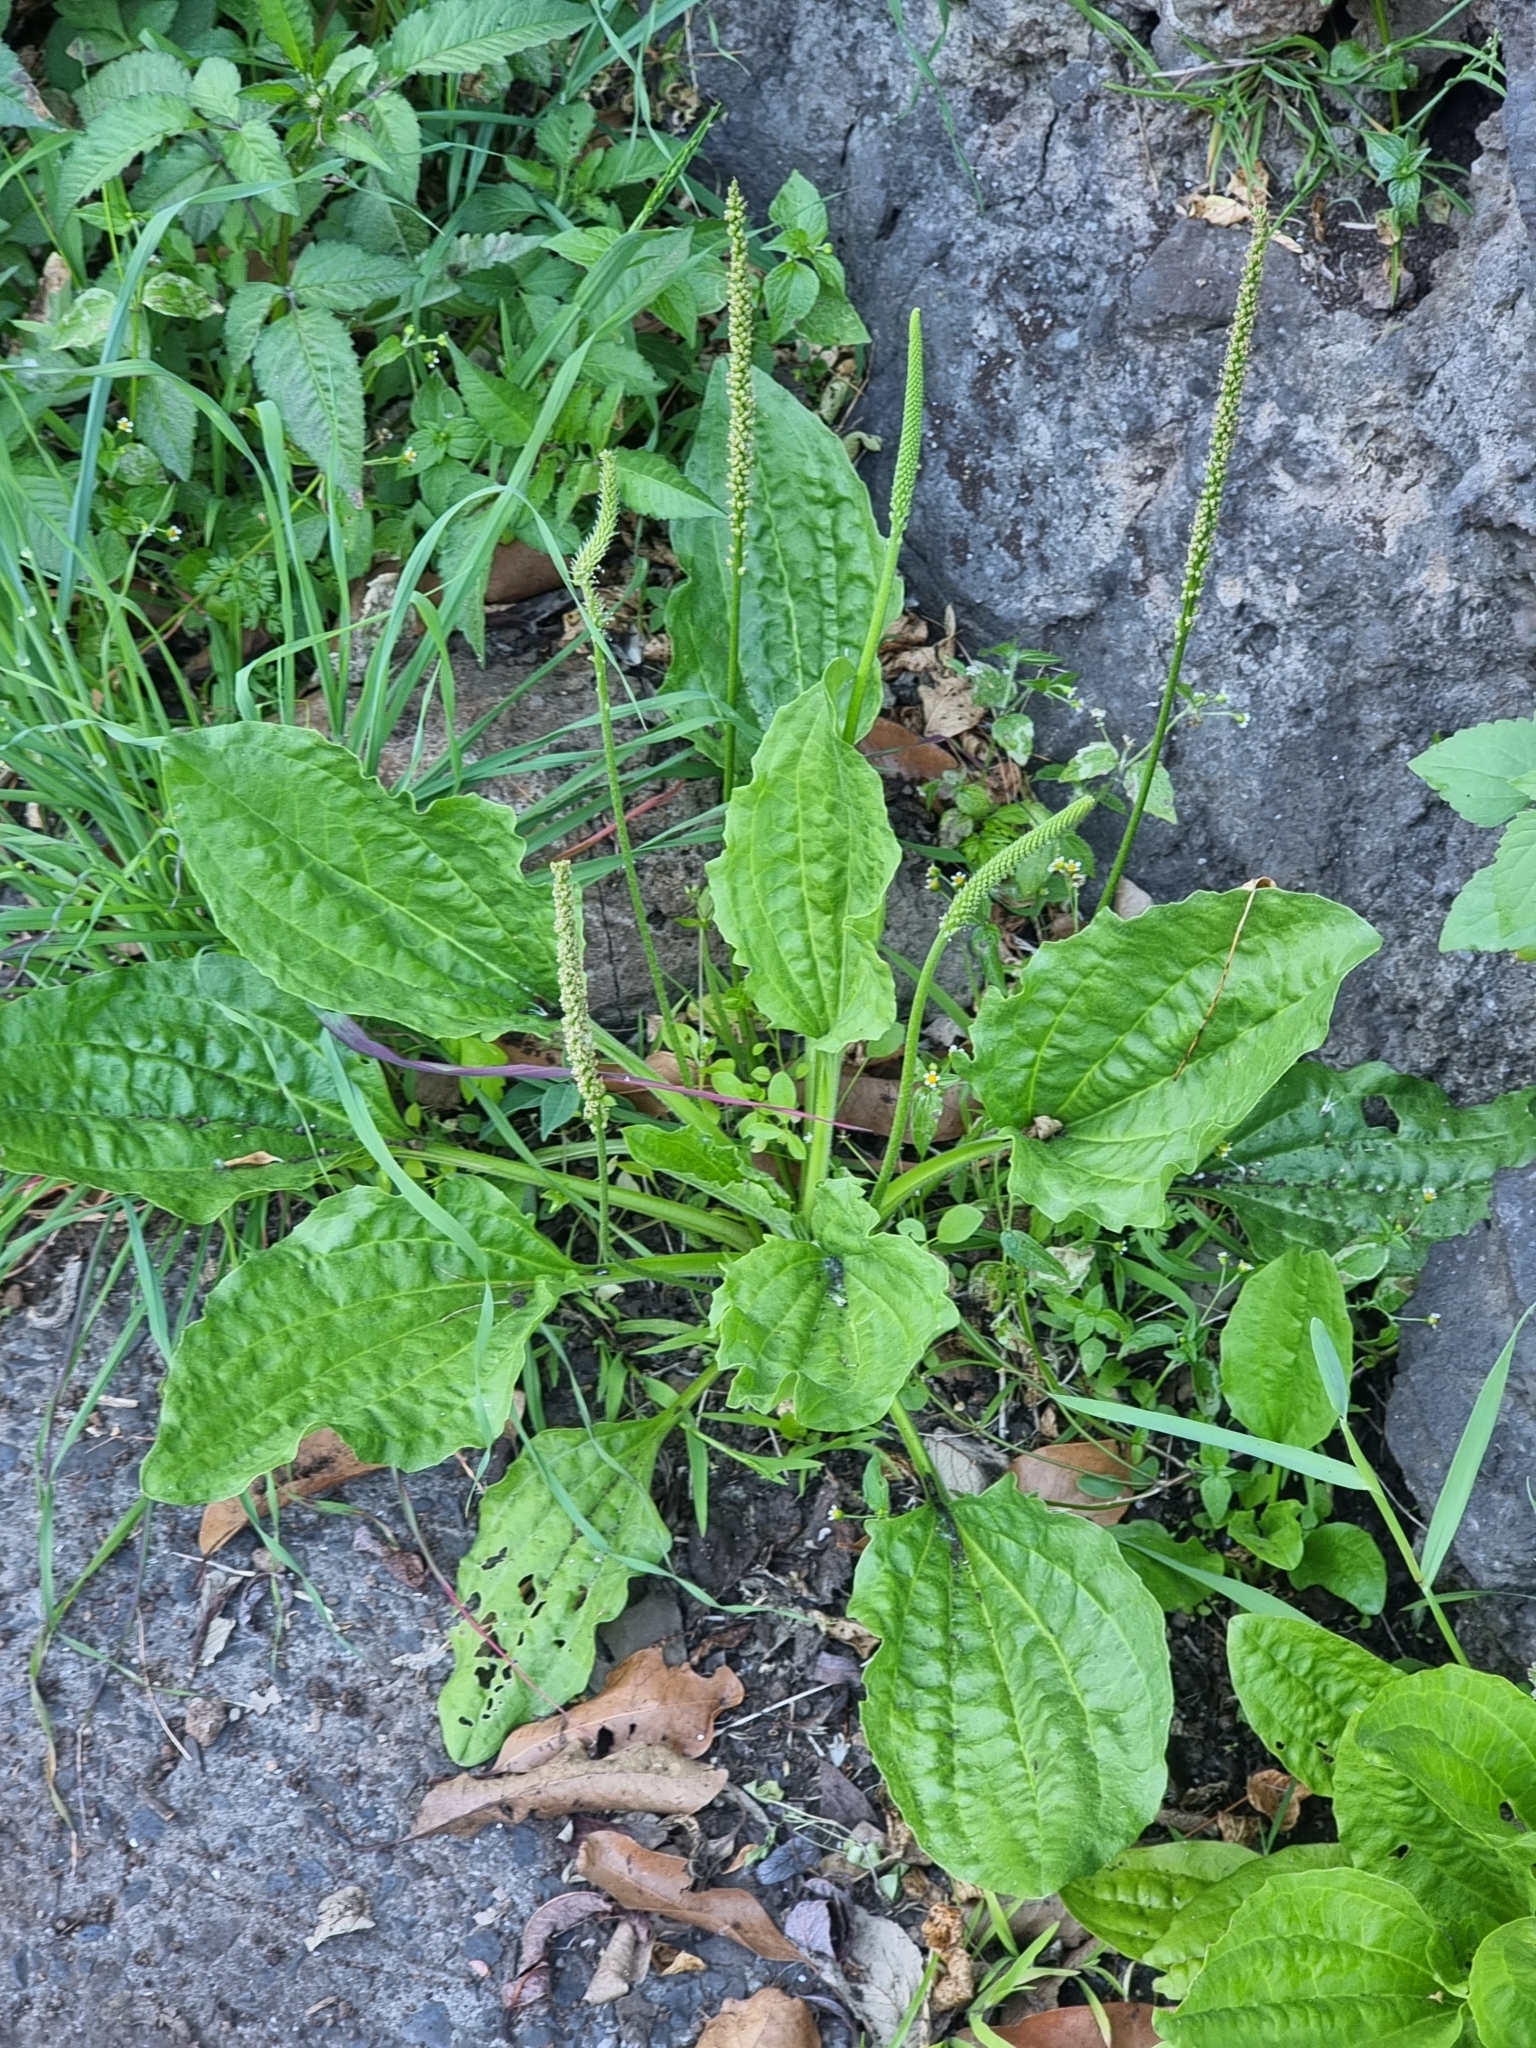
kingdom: Plantae
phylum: Tracheophyta
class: Magnoliopsida
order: Lamiales
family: Plantaginaceae
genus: Plantago
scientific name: Plantago major
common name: Common plantain
